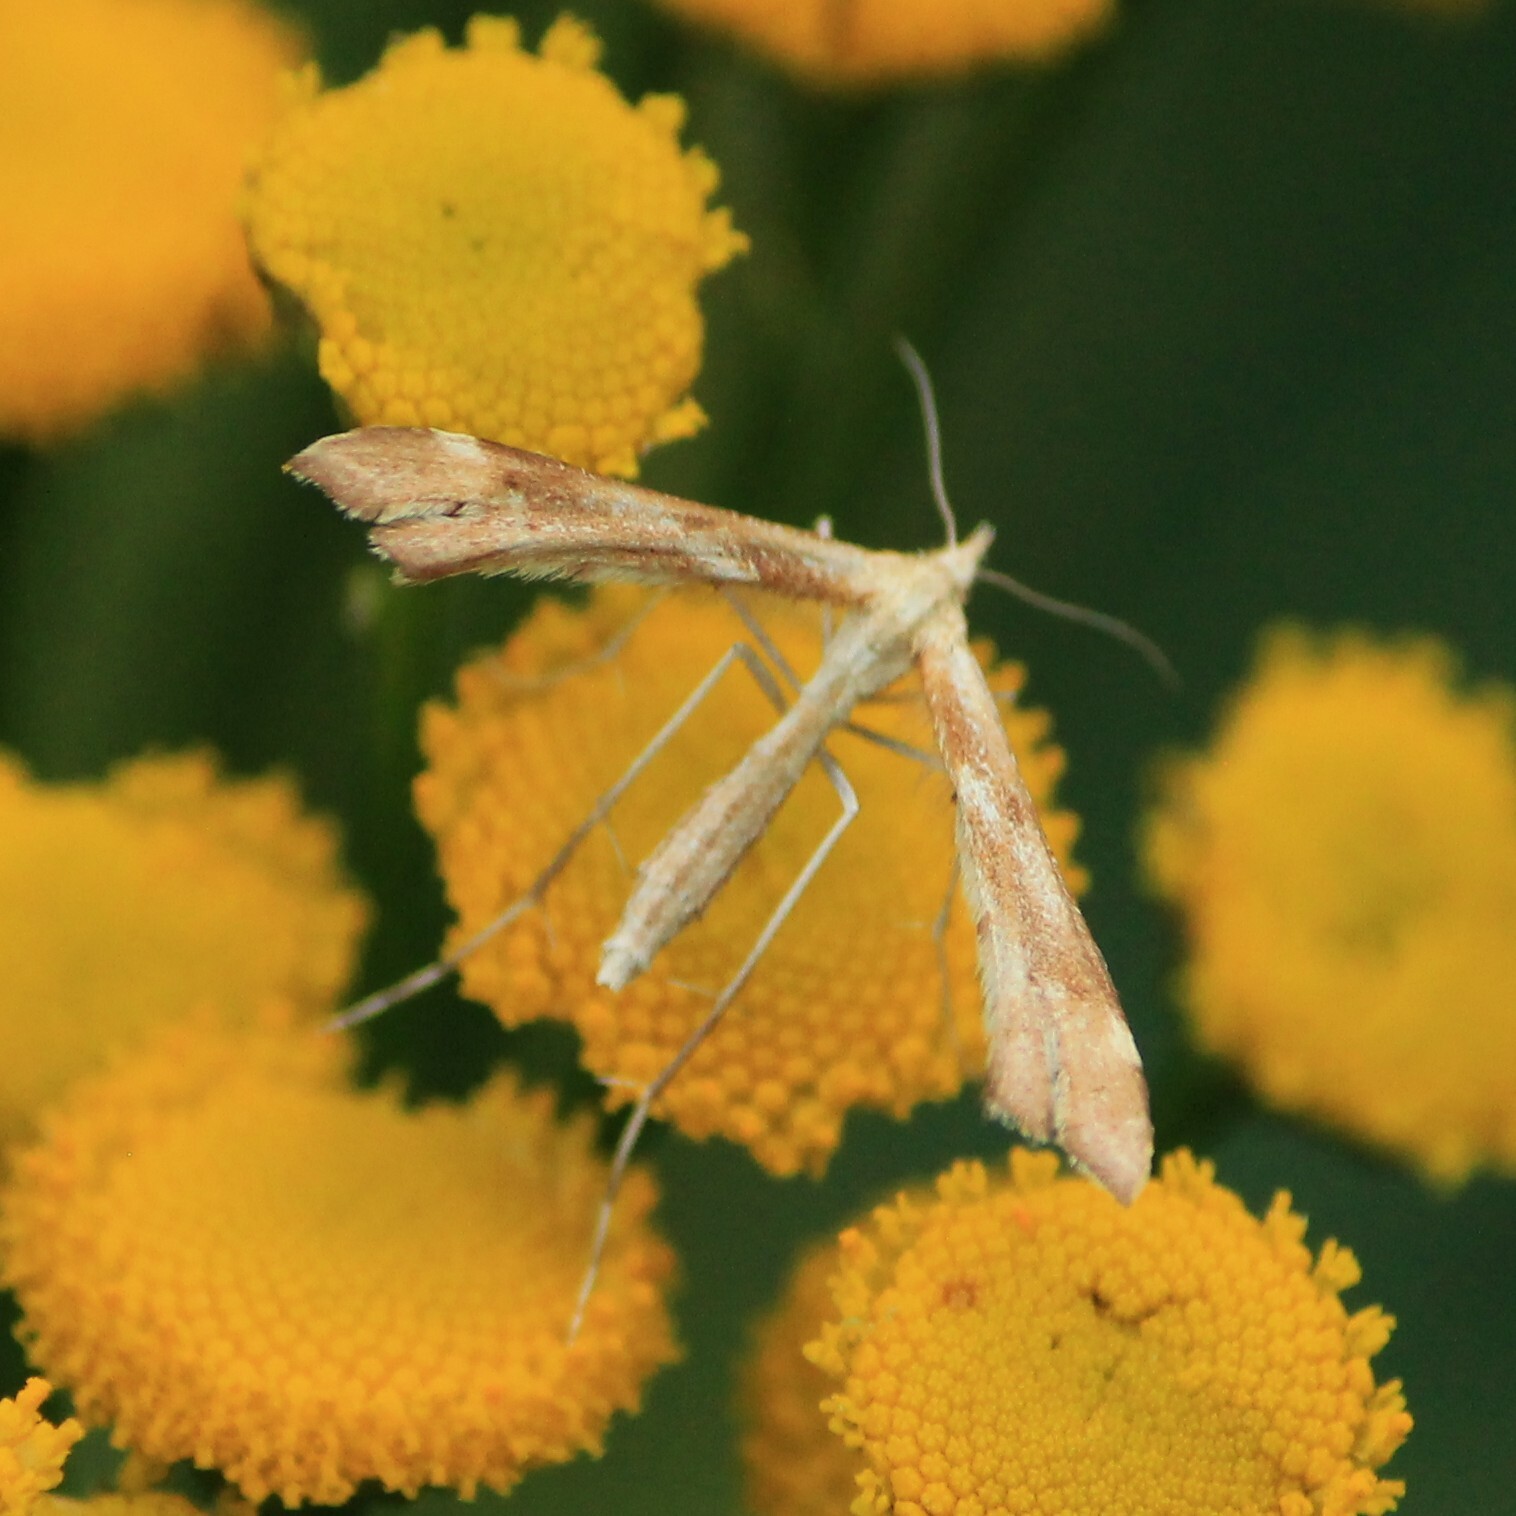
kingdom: Animalia
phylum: Arthropoda
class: Insecta
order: Lepidoptera
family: Pterophoridae
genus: Gillmeria
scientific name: Gillmeria ochrodactyla
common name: Tansy plume
